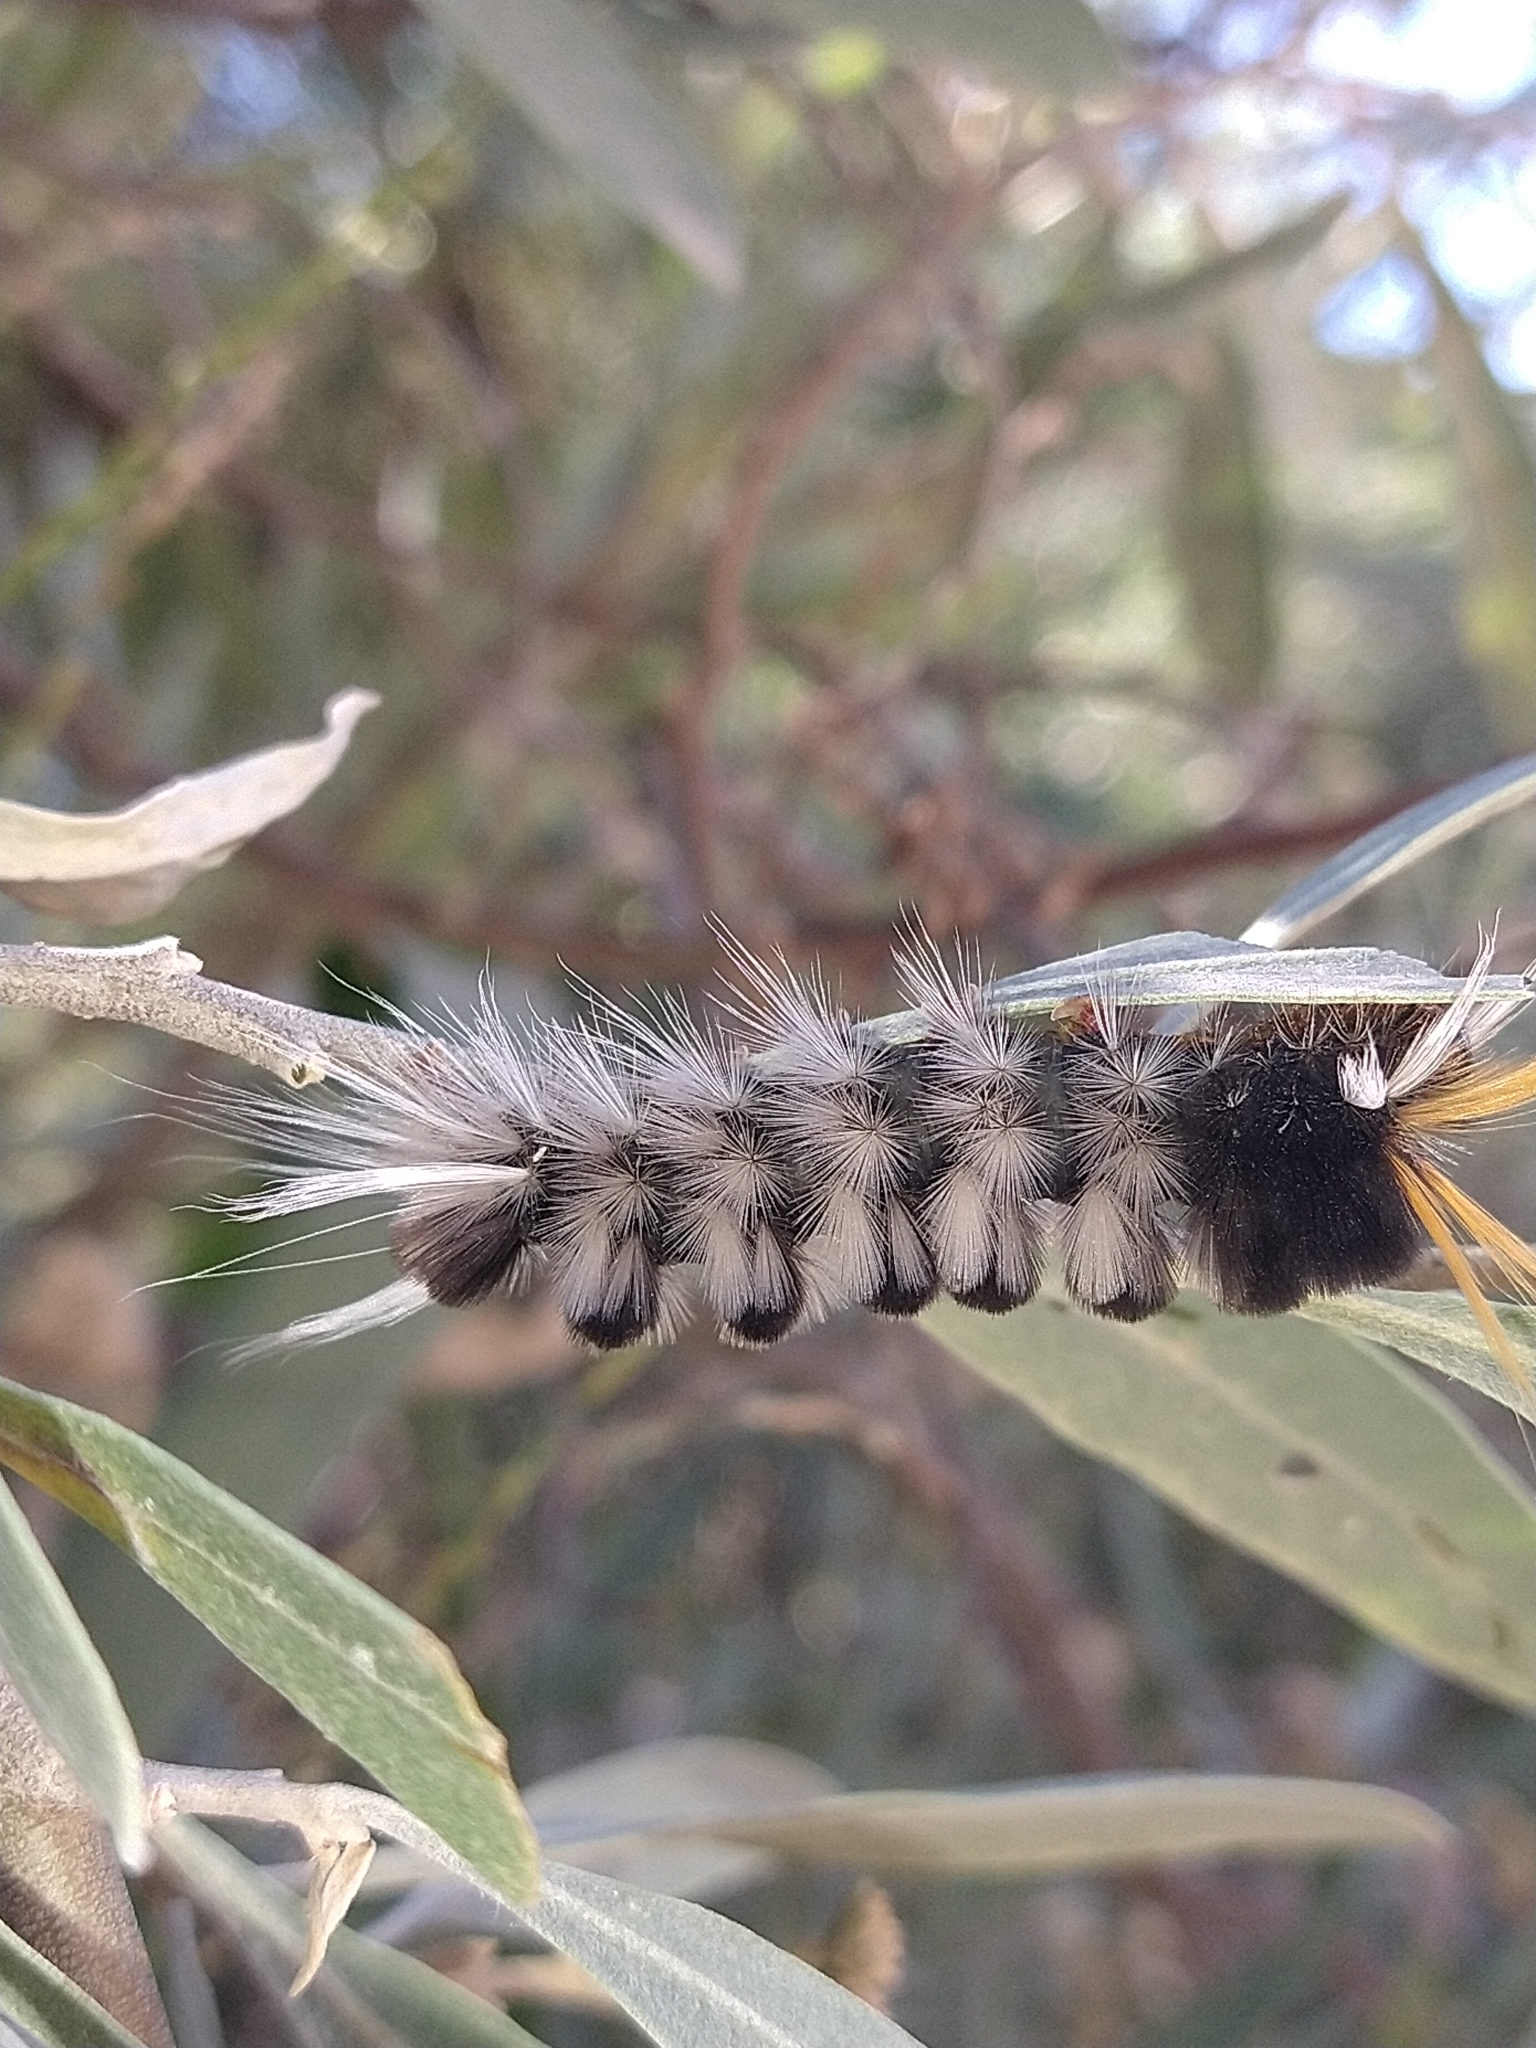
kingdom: Animalia
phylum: Arthropoda
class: Insecta
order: Lepidoptera
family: Erebidae
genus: Halysidota
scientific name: Halysidota ruscheweyhi
